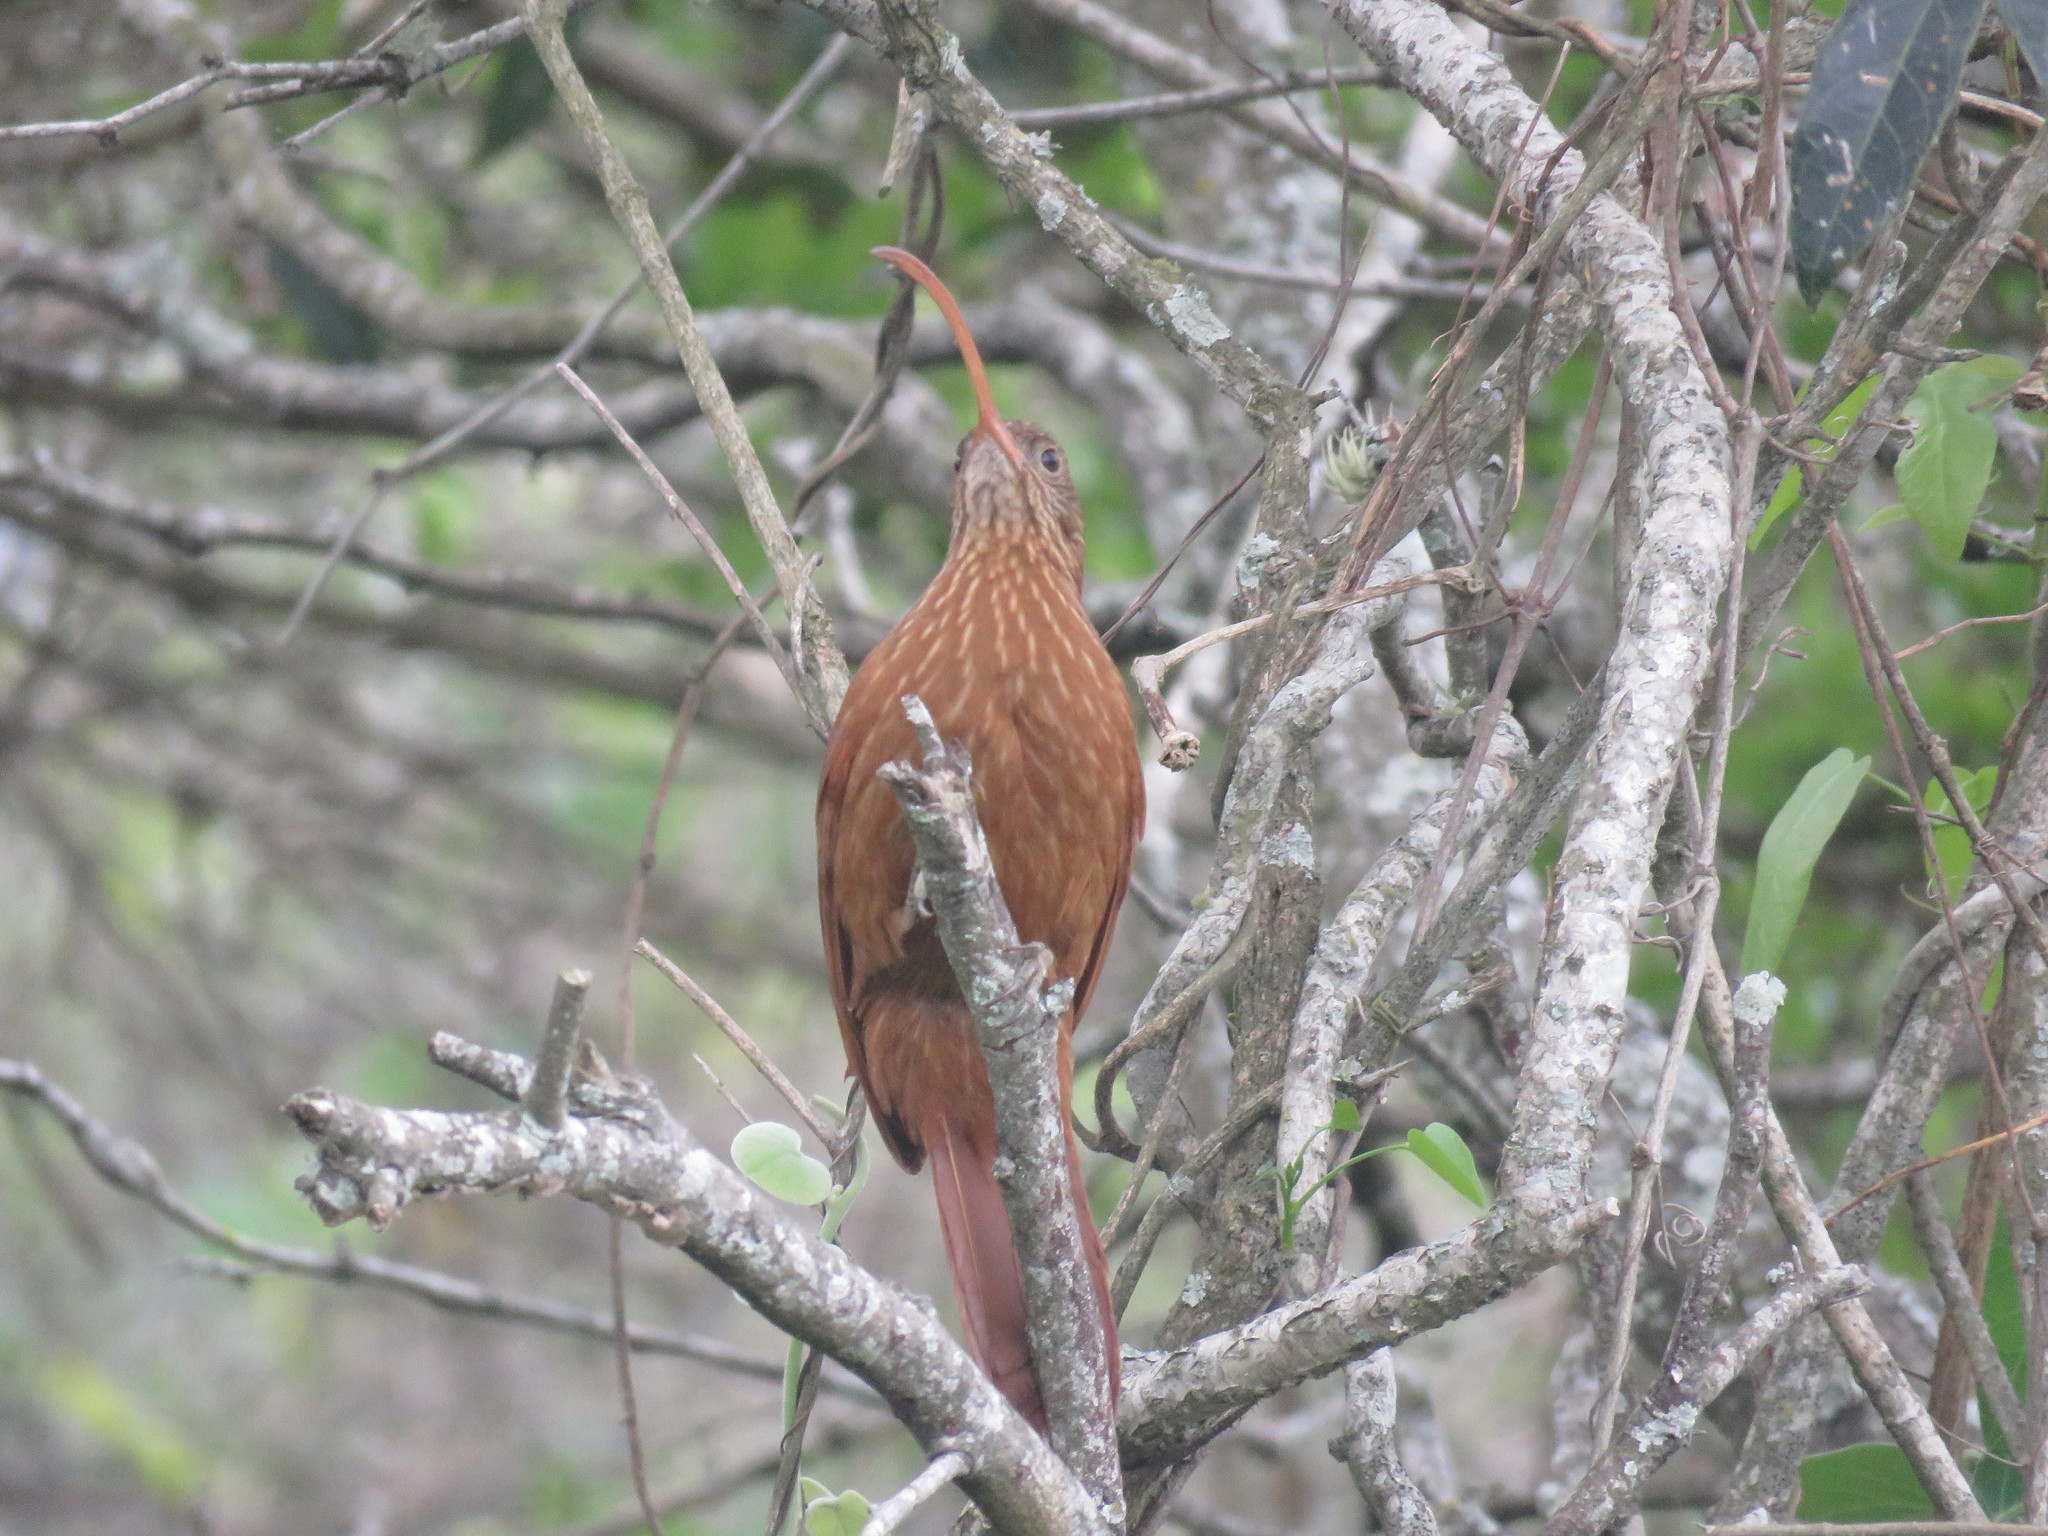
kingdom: Animalia
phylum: Chordata
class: Aves
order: Passeriformes
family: Furnariidae
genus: Campylorhamphus
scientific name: Campylorhamphus trochilirostris
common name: Red-billed scythebill
